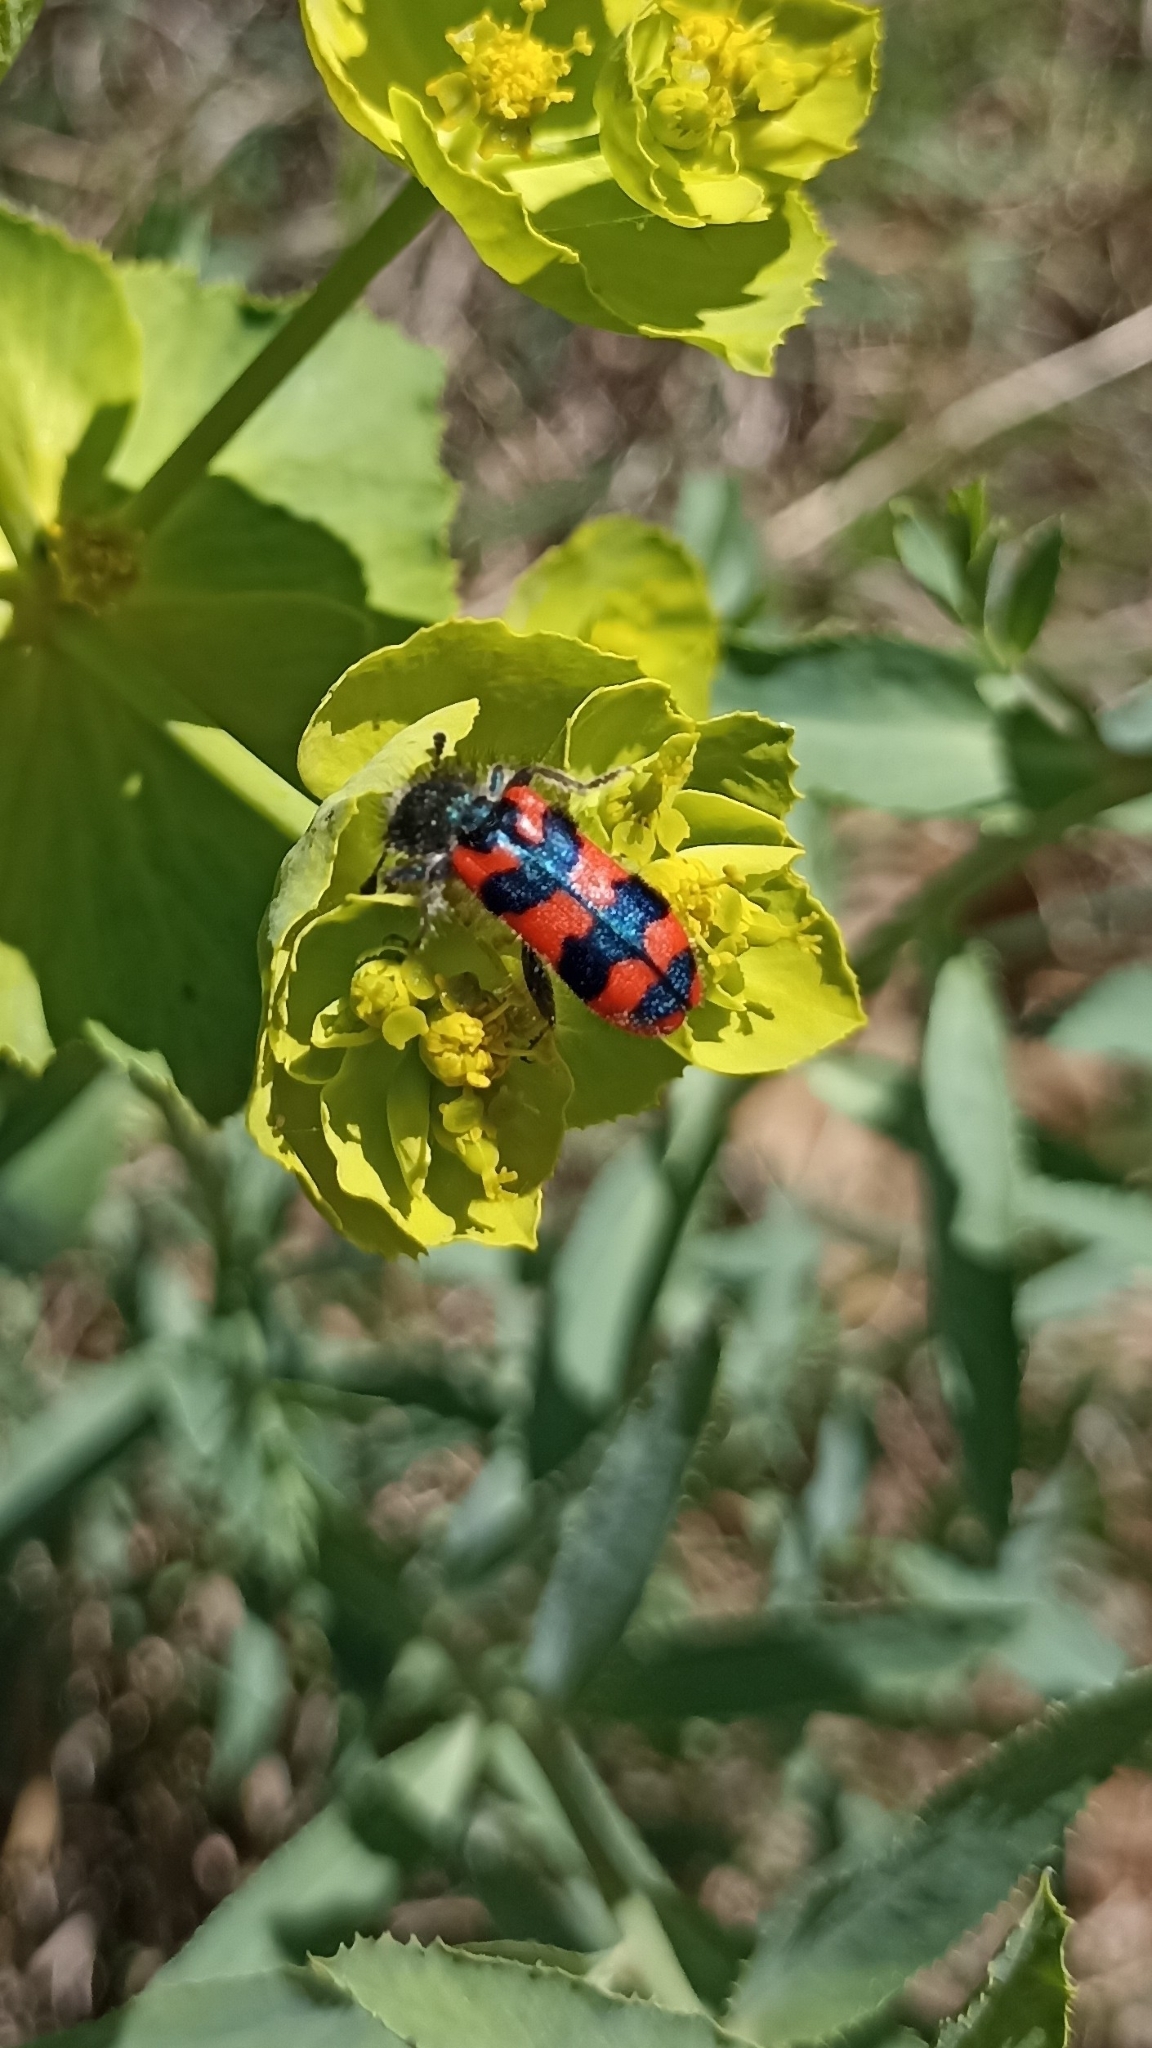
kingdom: Animalia
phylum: Arthropoda
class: Insecta
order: Coleoptera
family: Cleridae
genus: Trichodes
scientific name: Trichodes alvearius
